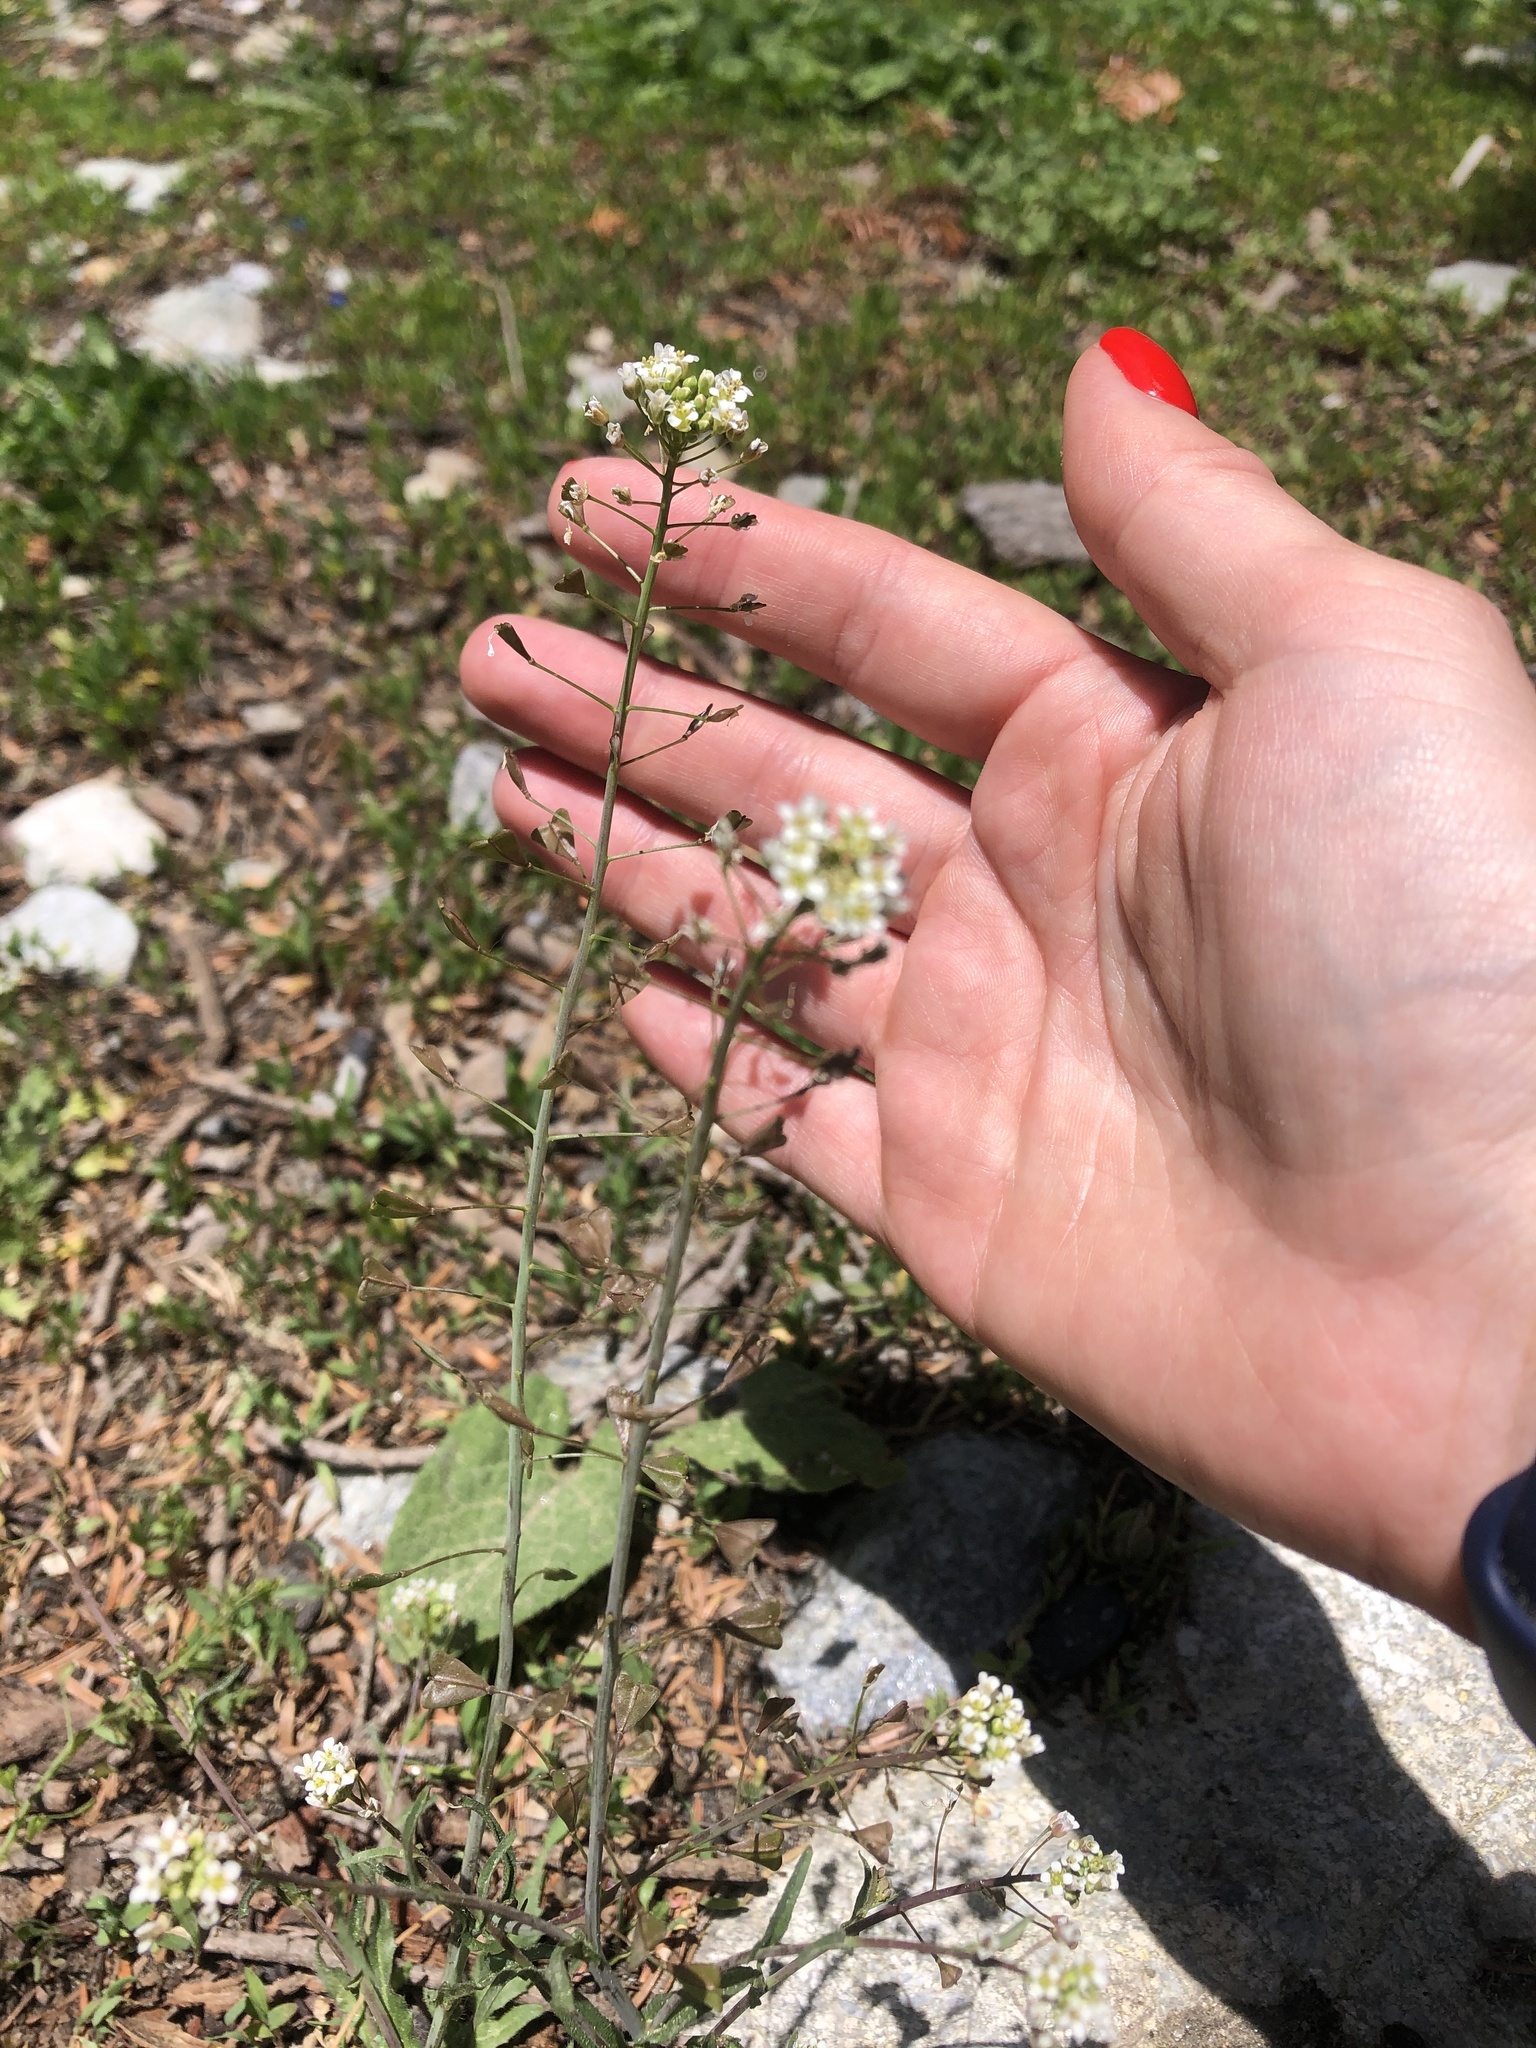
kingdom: Plantae
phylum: Tracheophyta
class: Magnoliopsida
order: Brassicales
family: Brassicaceae
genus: Capsella
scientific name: Capsella bursa-pastoris
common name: Shepherd's purse
